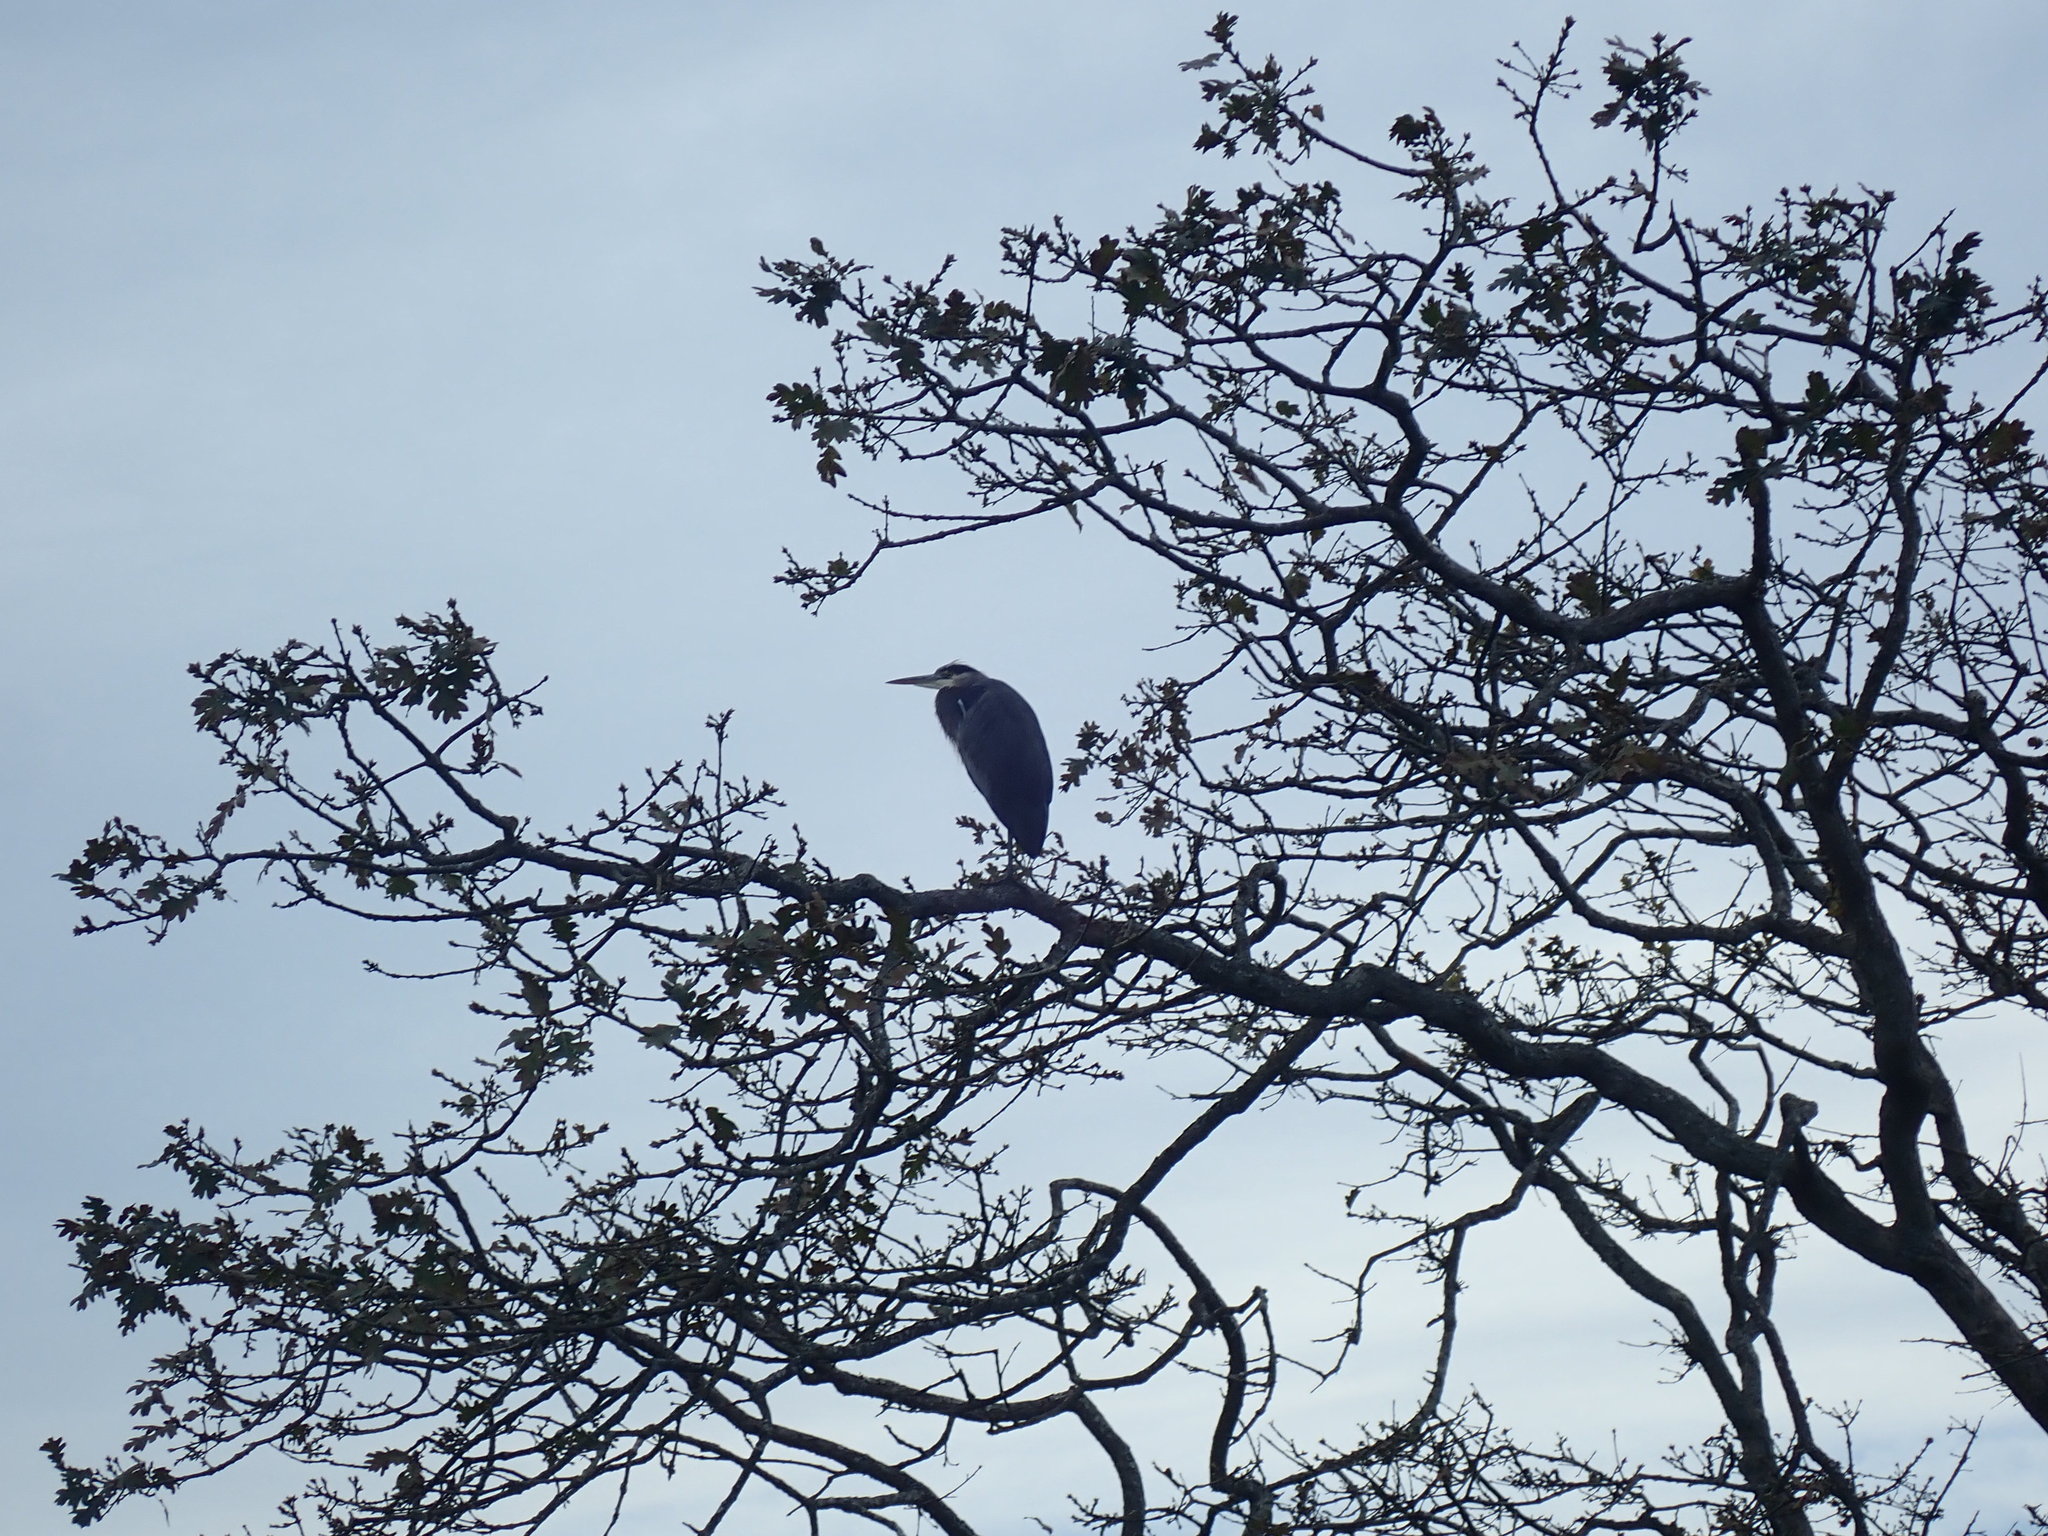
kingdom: Animalia
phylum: Chordata
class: Aves
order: Pelecaniformes
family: Ardeidae
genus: Ardea
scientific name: Ardea herodias
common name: Great blue heron
